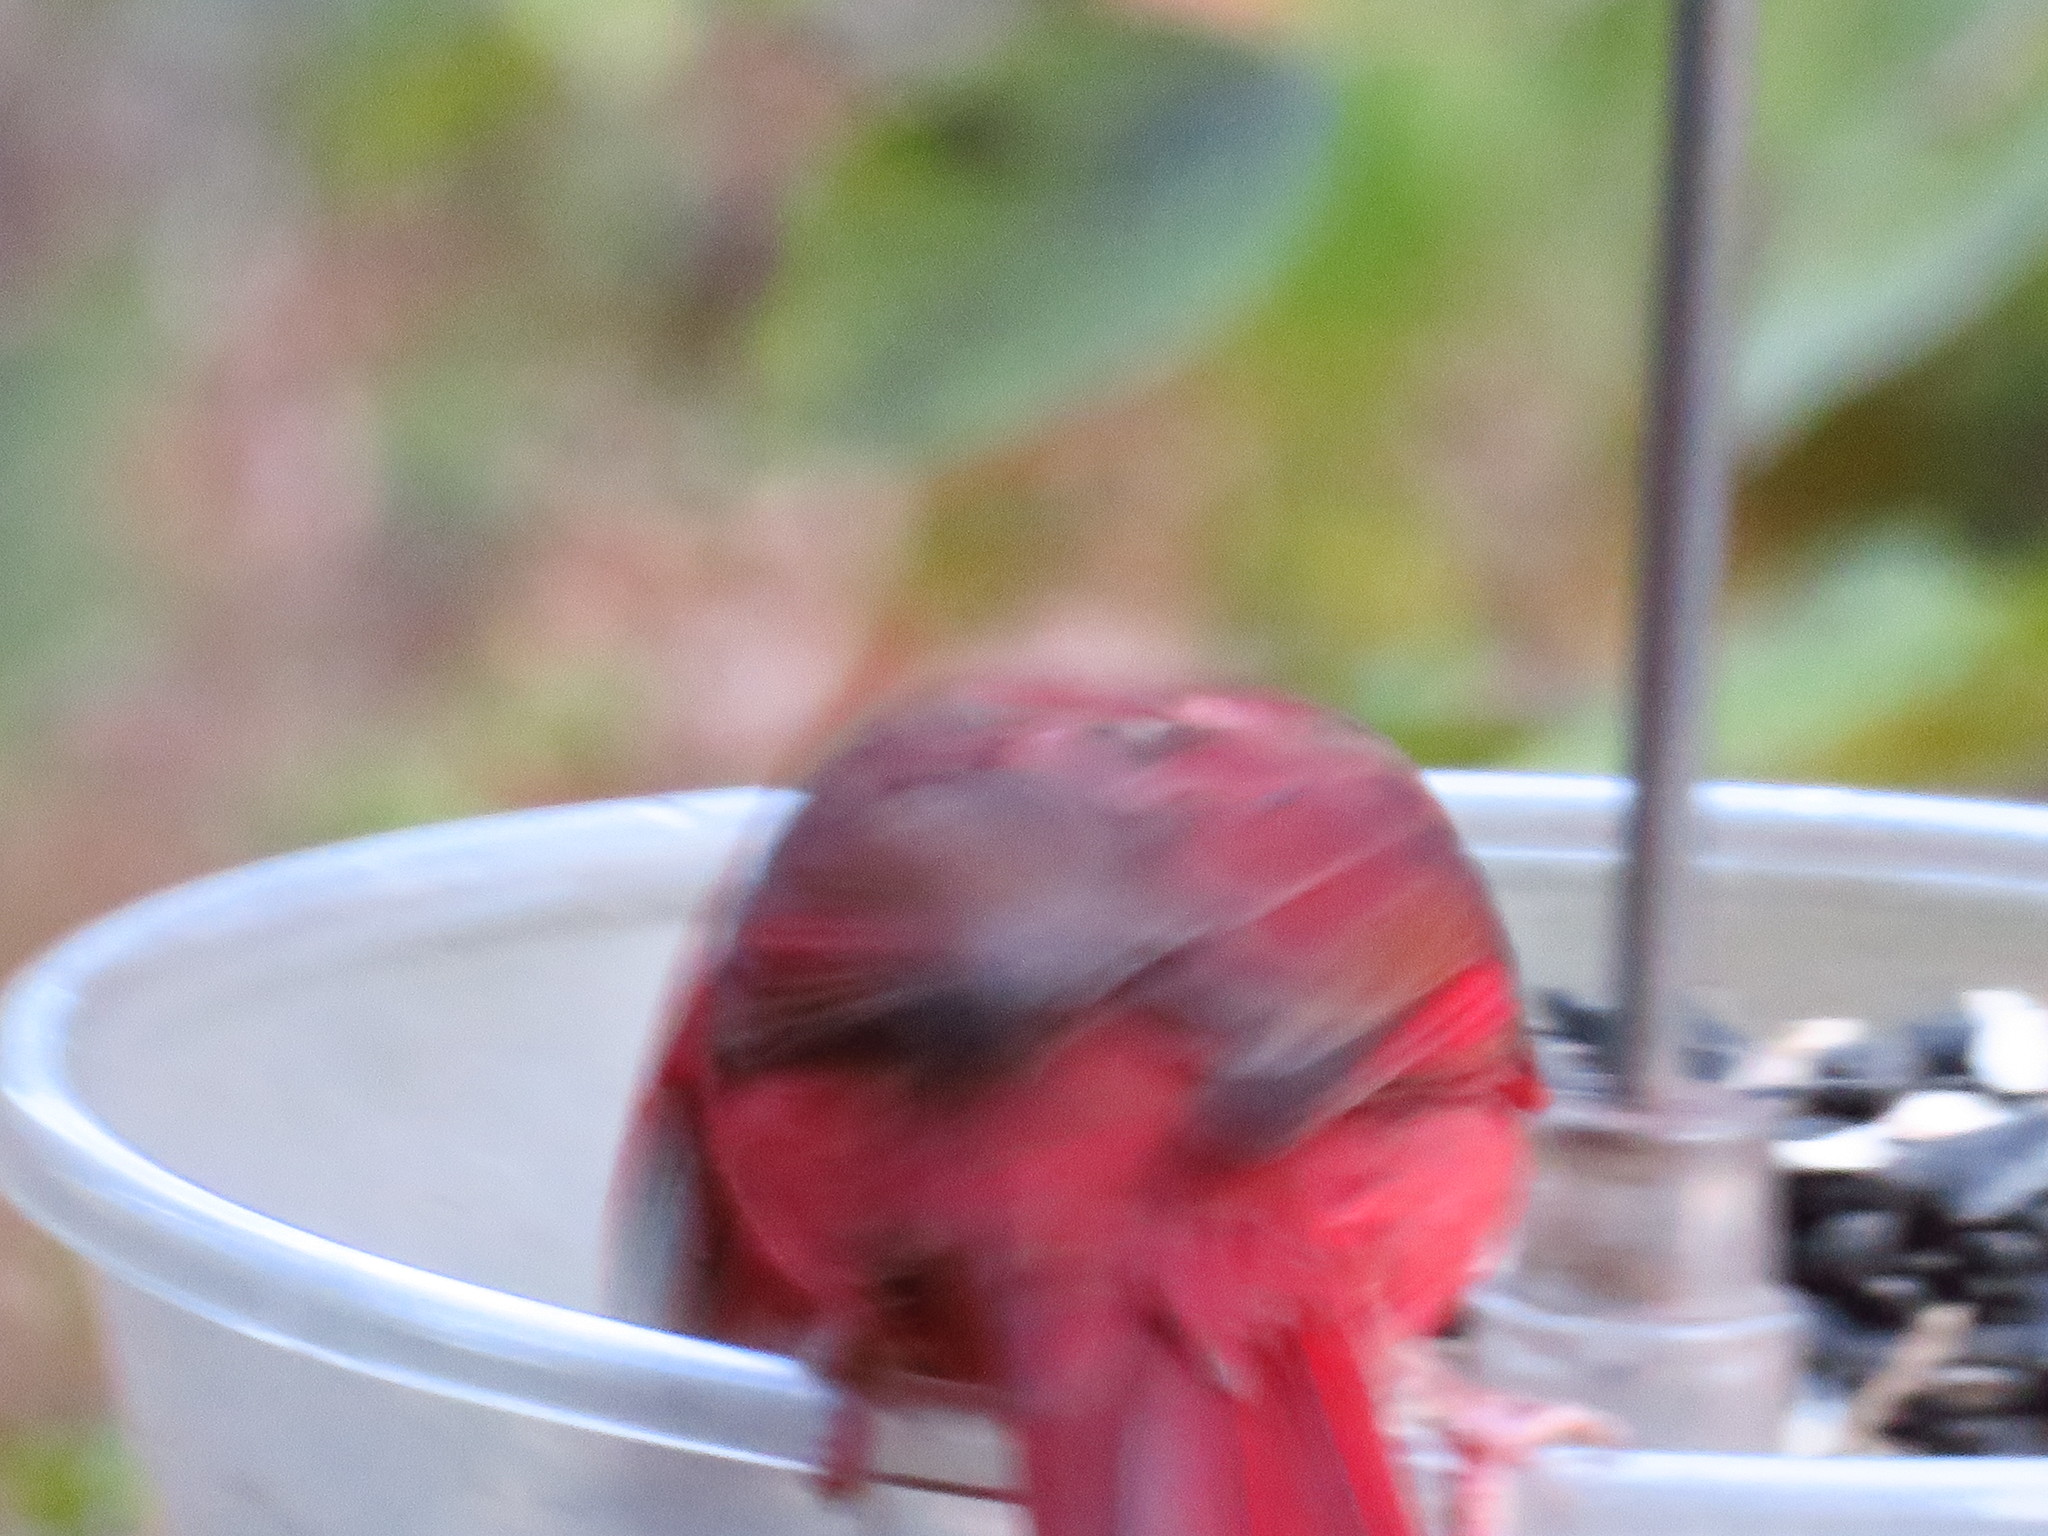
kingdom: Animalia
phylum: Chordata
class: Aves
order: Passeriformes
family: Cardinalidae
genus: Cardinalis
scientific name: Cardinalis cardinalis
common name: Northern cardinal
